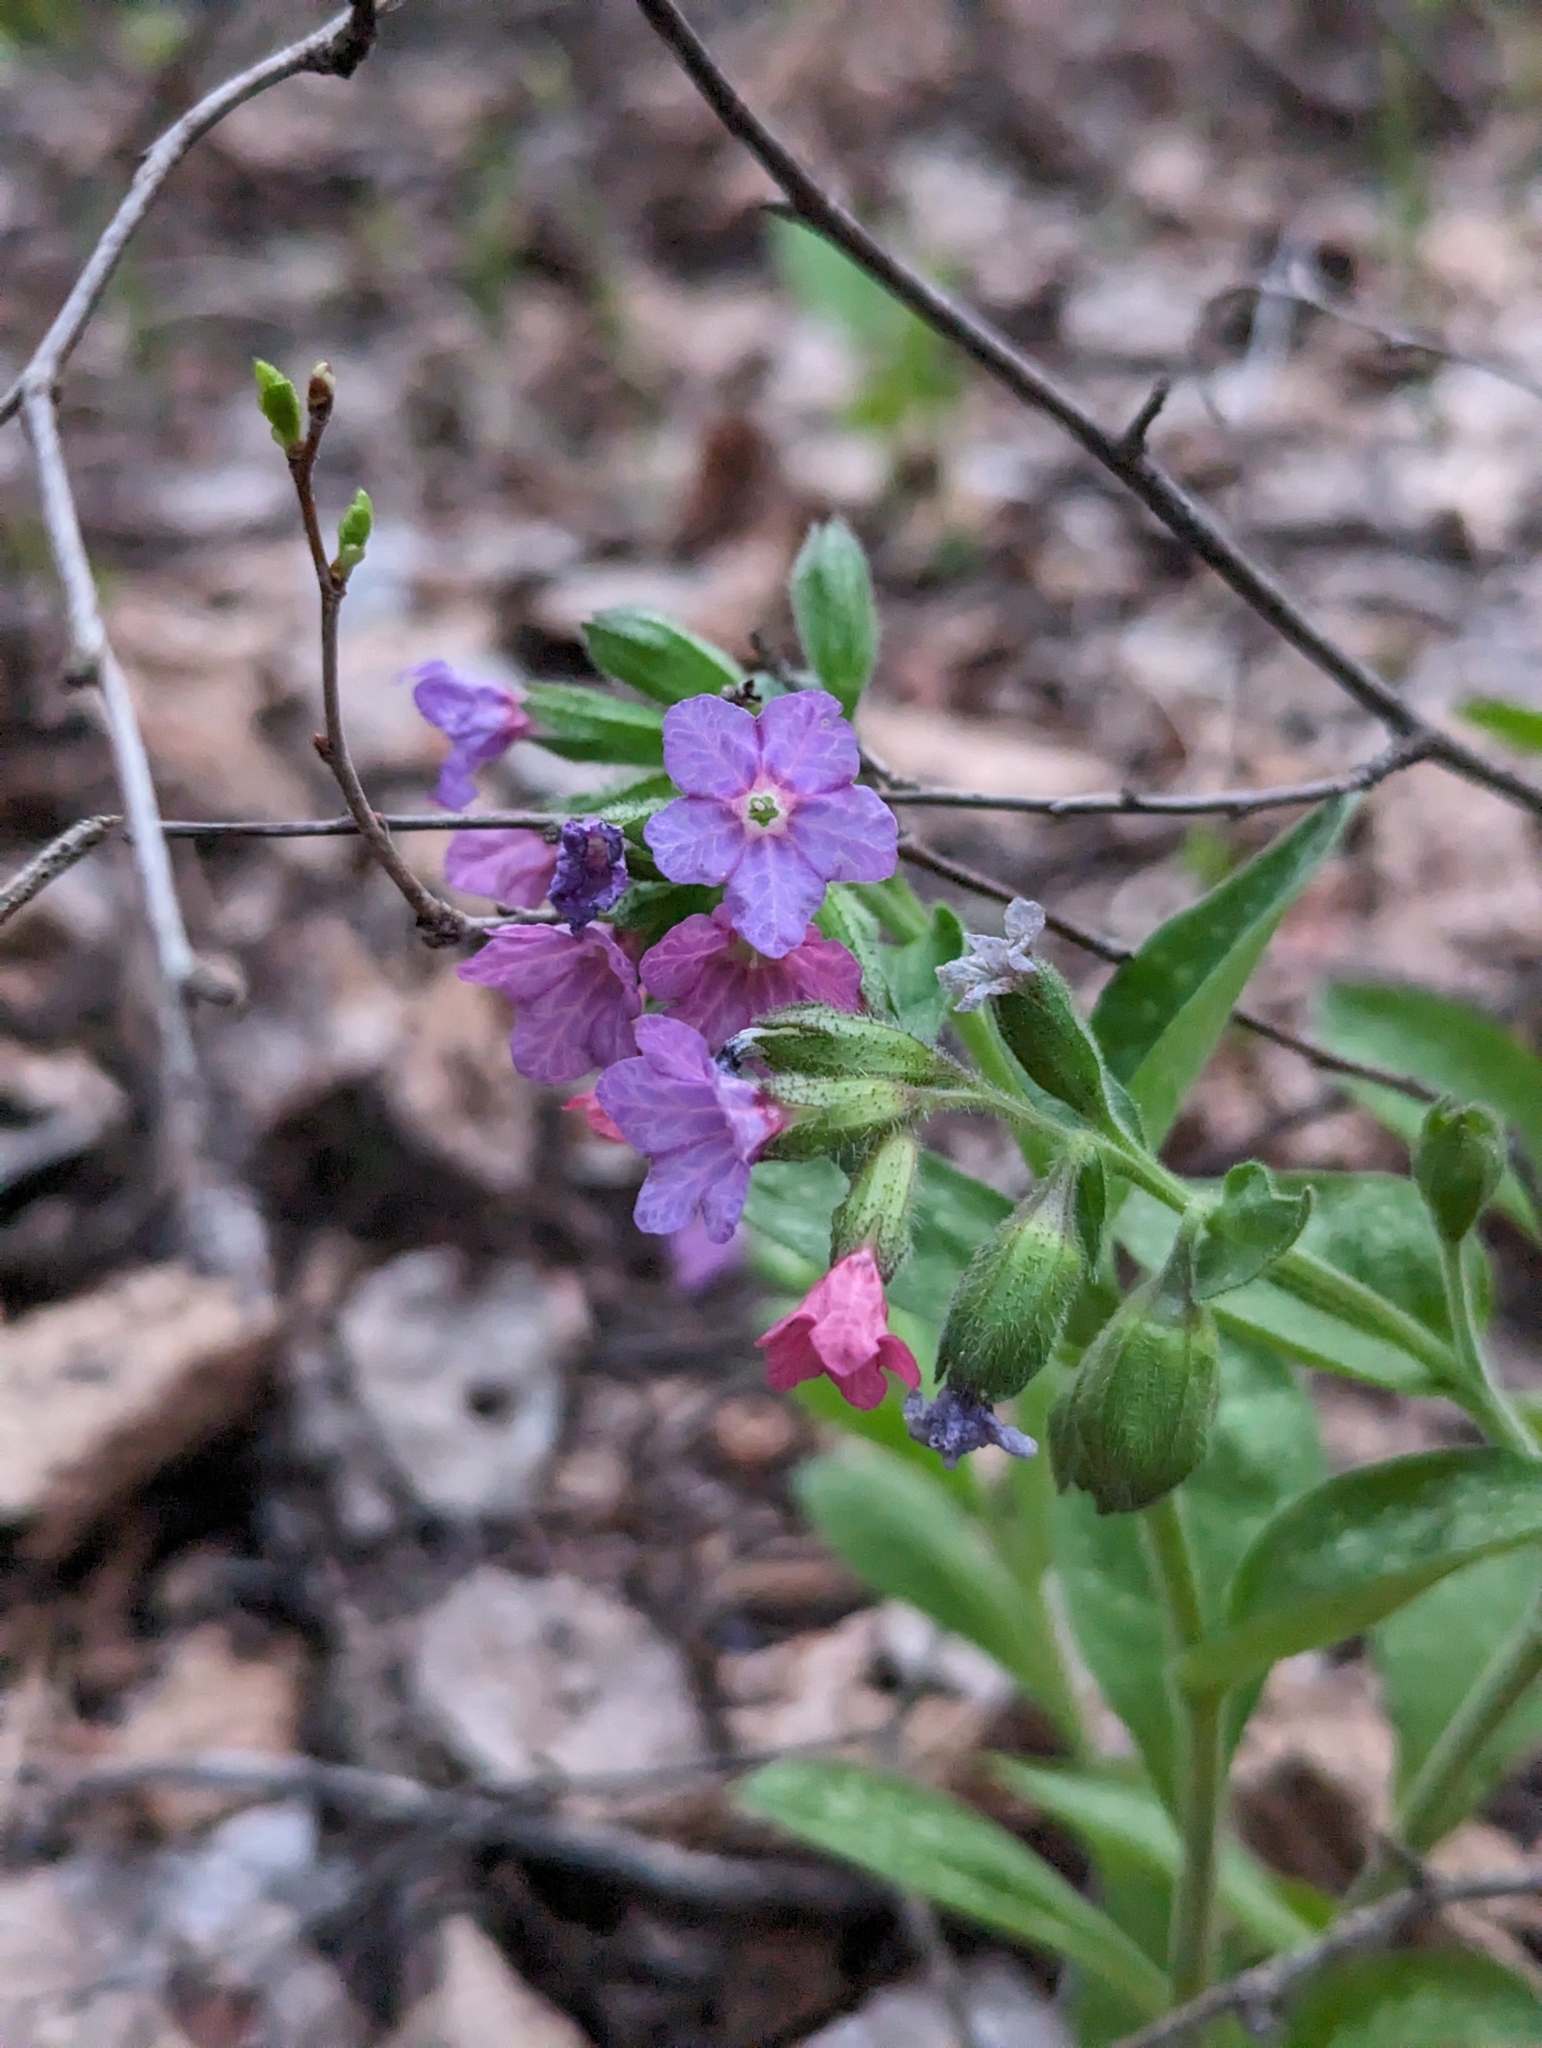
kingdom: Plantae
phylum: Tracheophyta
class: Magnoliopsida
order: Boraginales
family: Boraginaceae
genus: Pulmonaria
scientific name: Pulmonaria obscura
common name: Suffolk lungwort
